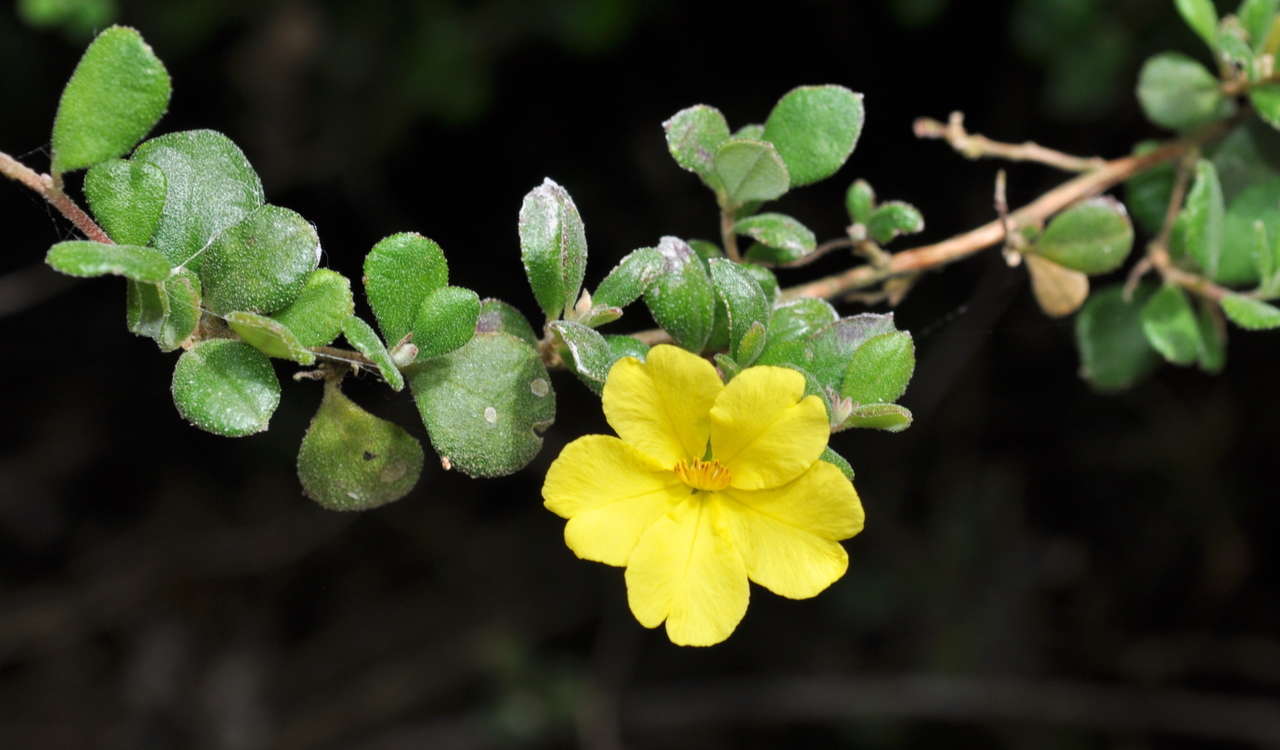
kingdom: Plantae
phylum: Tracheophyta
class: Magnoliopsida
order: Dilleniales
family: Dilleniaceae
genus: Hibbertia
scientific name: Hibbertia truncata
